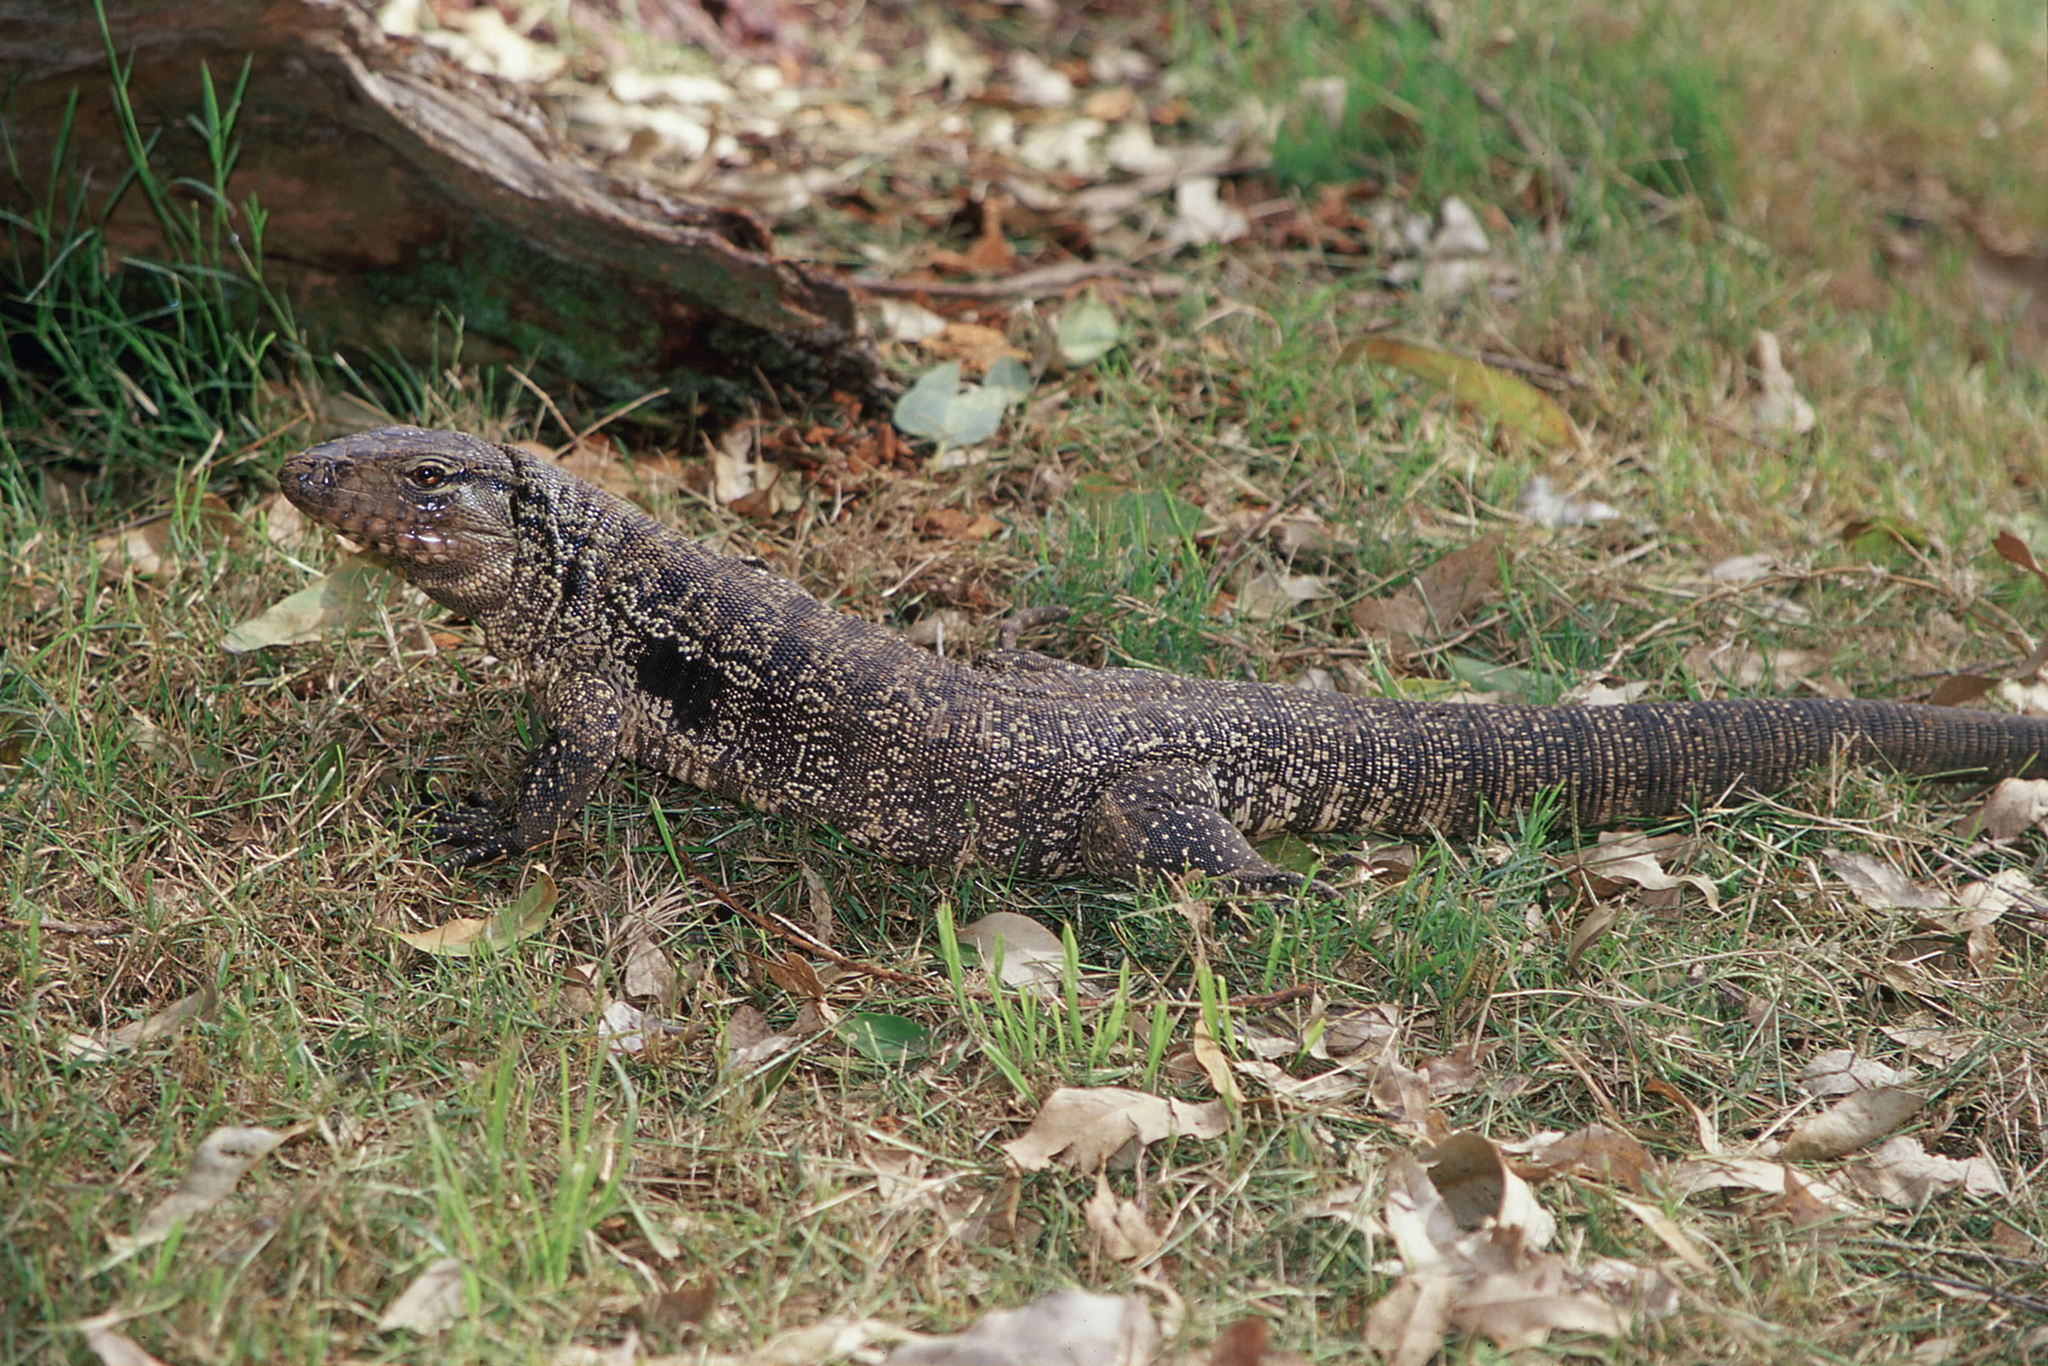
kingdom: Animalia
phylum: Chordata
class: Squamata
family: Teiidae
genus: Salvator
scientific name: Salvator merianae
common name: Argentine black and white tegu
